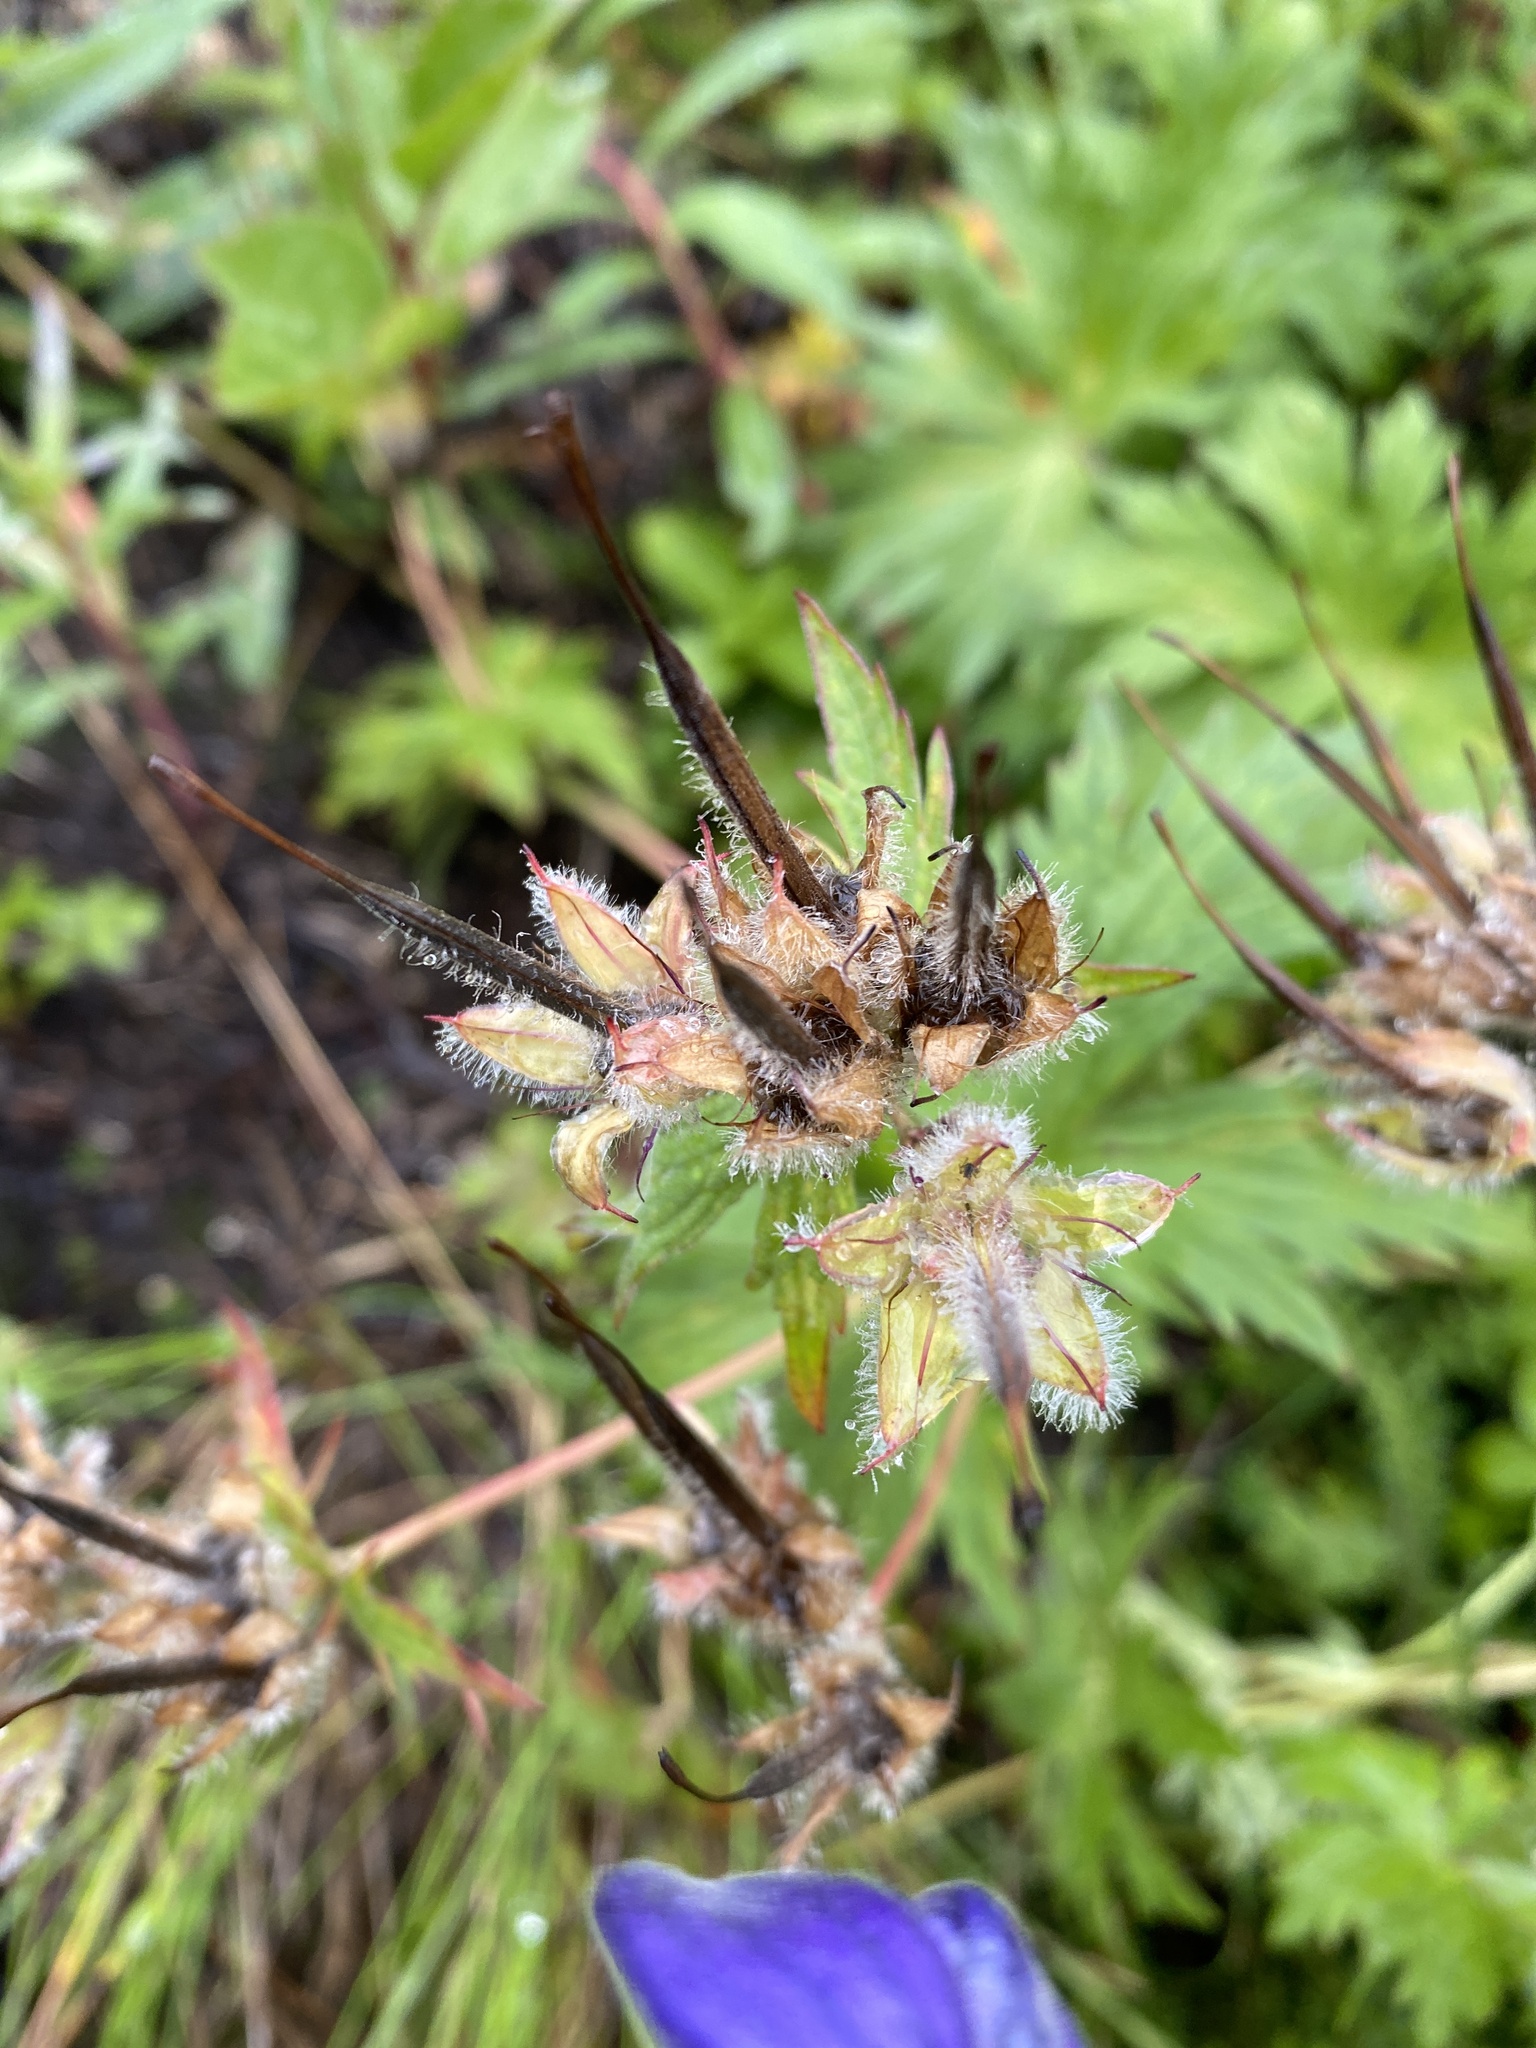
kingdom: Plantae
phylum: Tracheophyta
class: Magnoliopsida
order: Geraniales
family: Geraniaceae
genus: Geranium
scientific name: Geranium erianthum
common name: Northern crane's-bill
